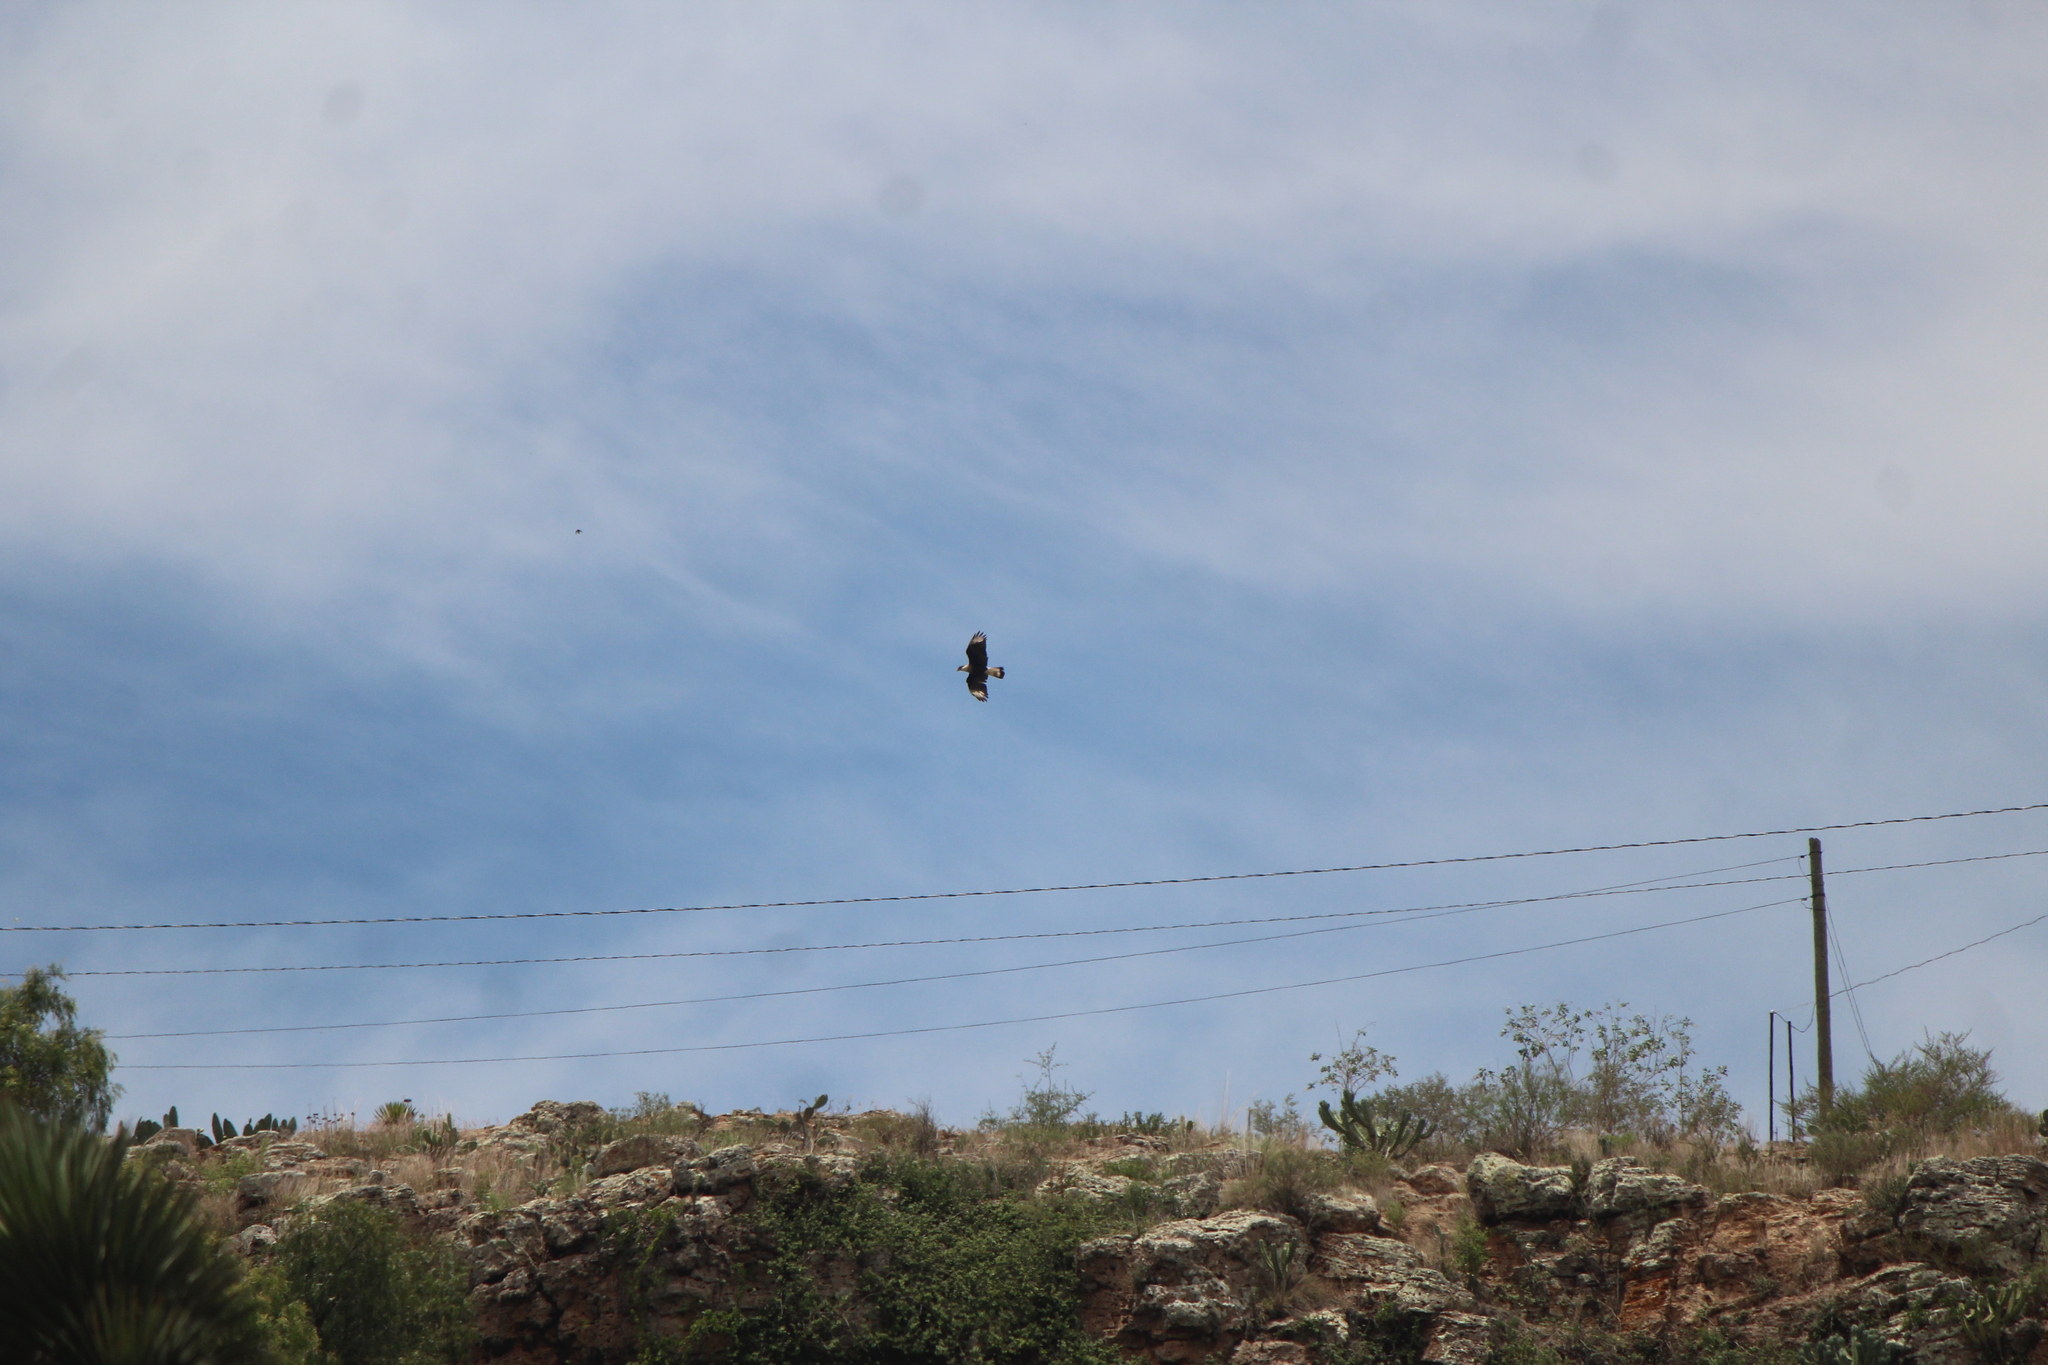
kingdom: Animalia
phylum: Chordata
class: Aves
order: Falconiformes
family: Falconidae
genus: Caracara
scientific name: Caracara plancus
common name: Southern caracara
